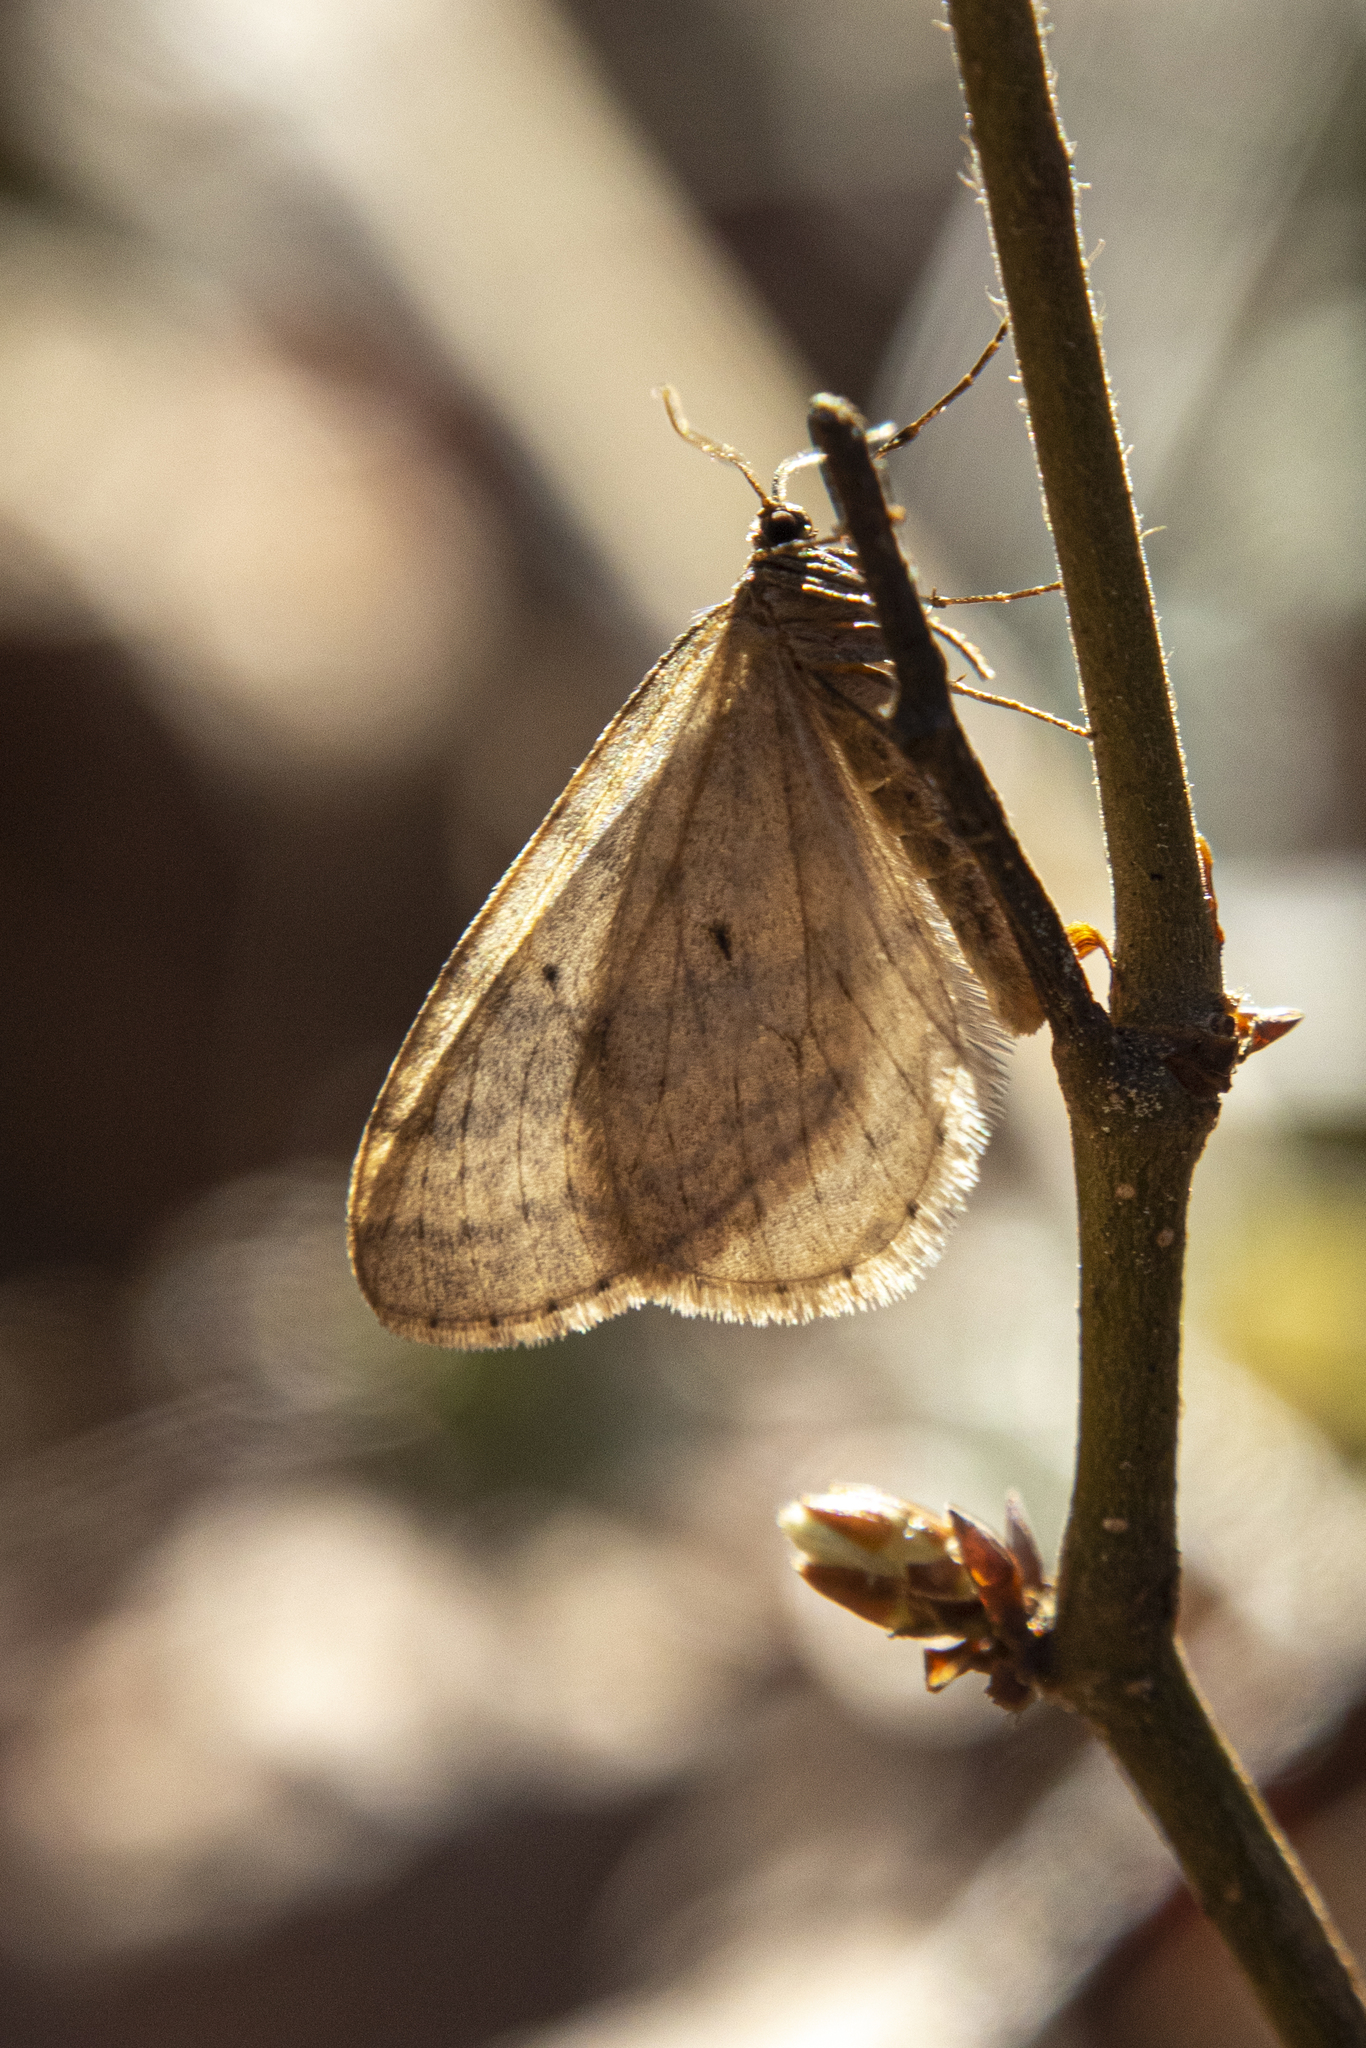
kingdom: Animalia
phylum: Arthropoda
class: Insecta
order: Lepidoptera
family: Geometridae
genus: Operophtera
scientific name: Operophtera bruceata
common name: Bruce spanworm
